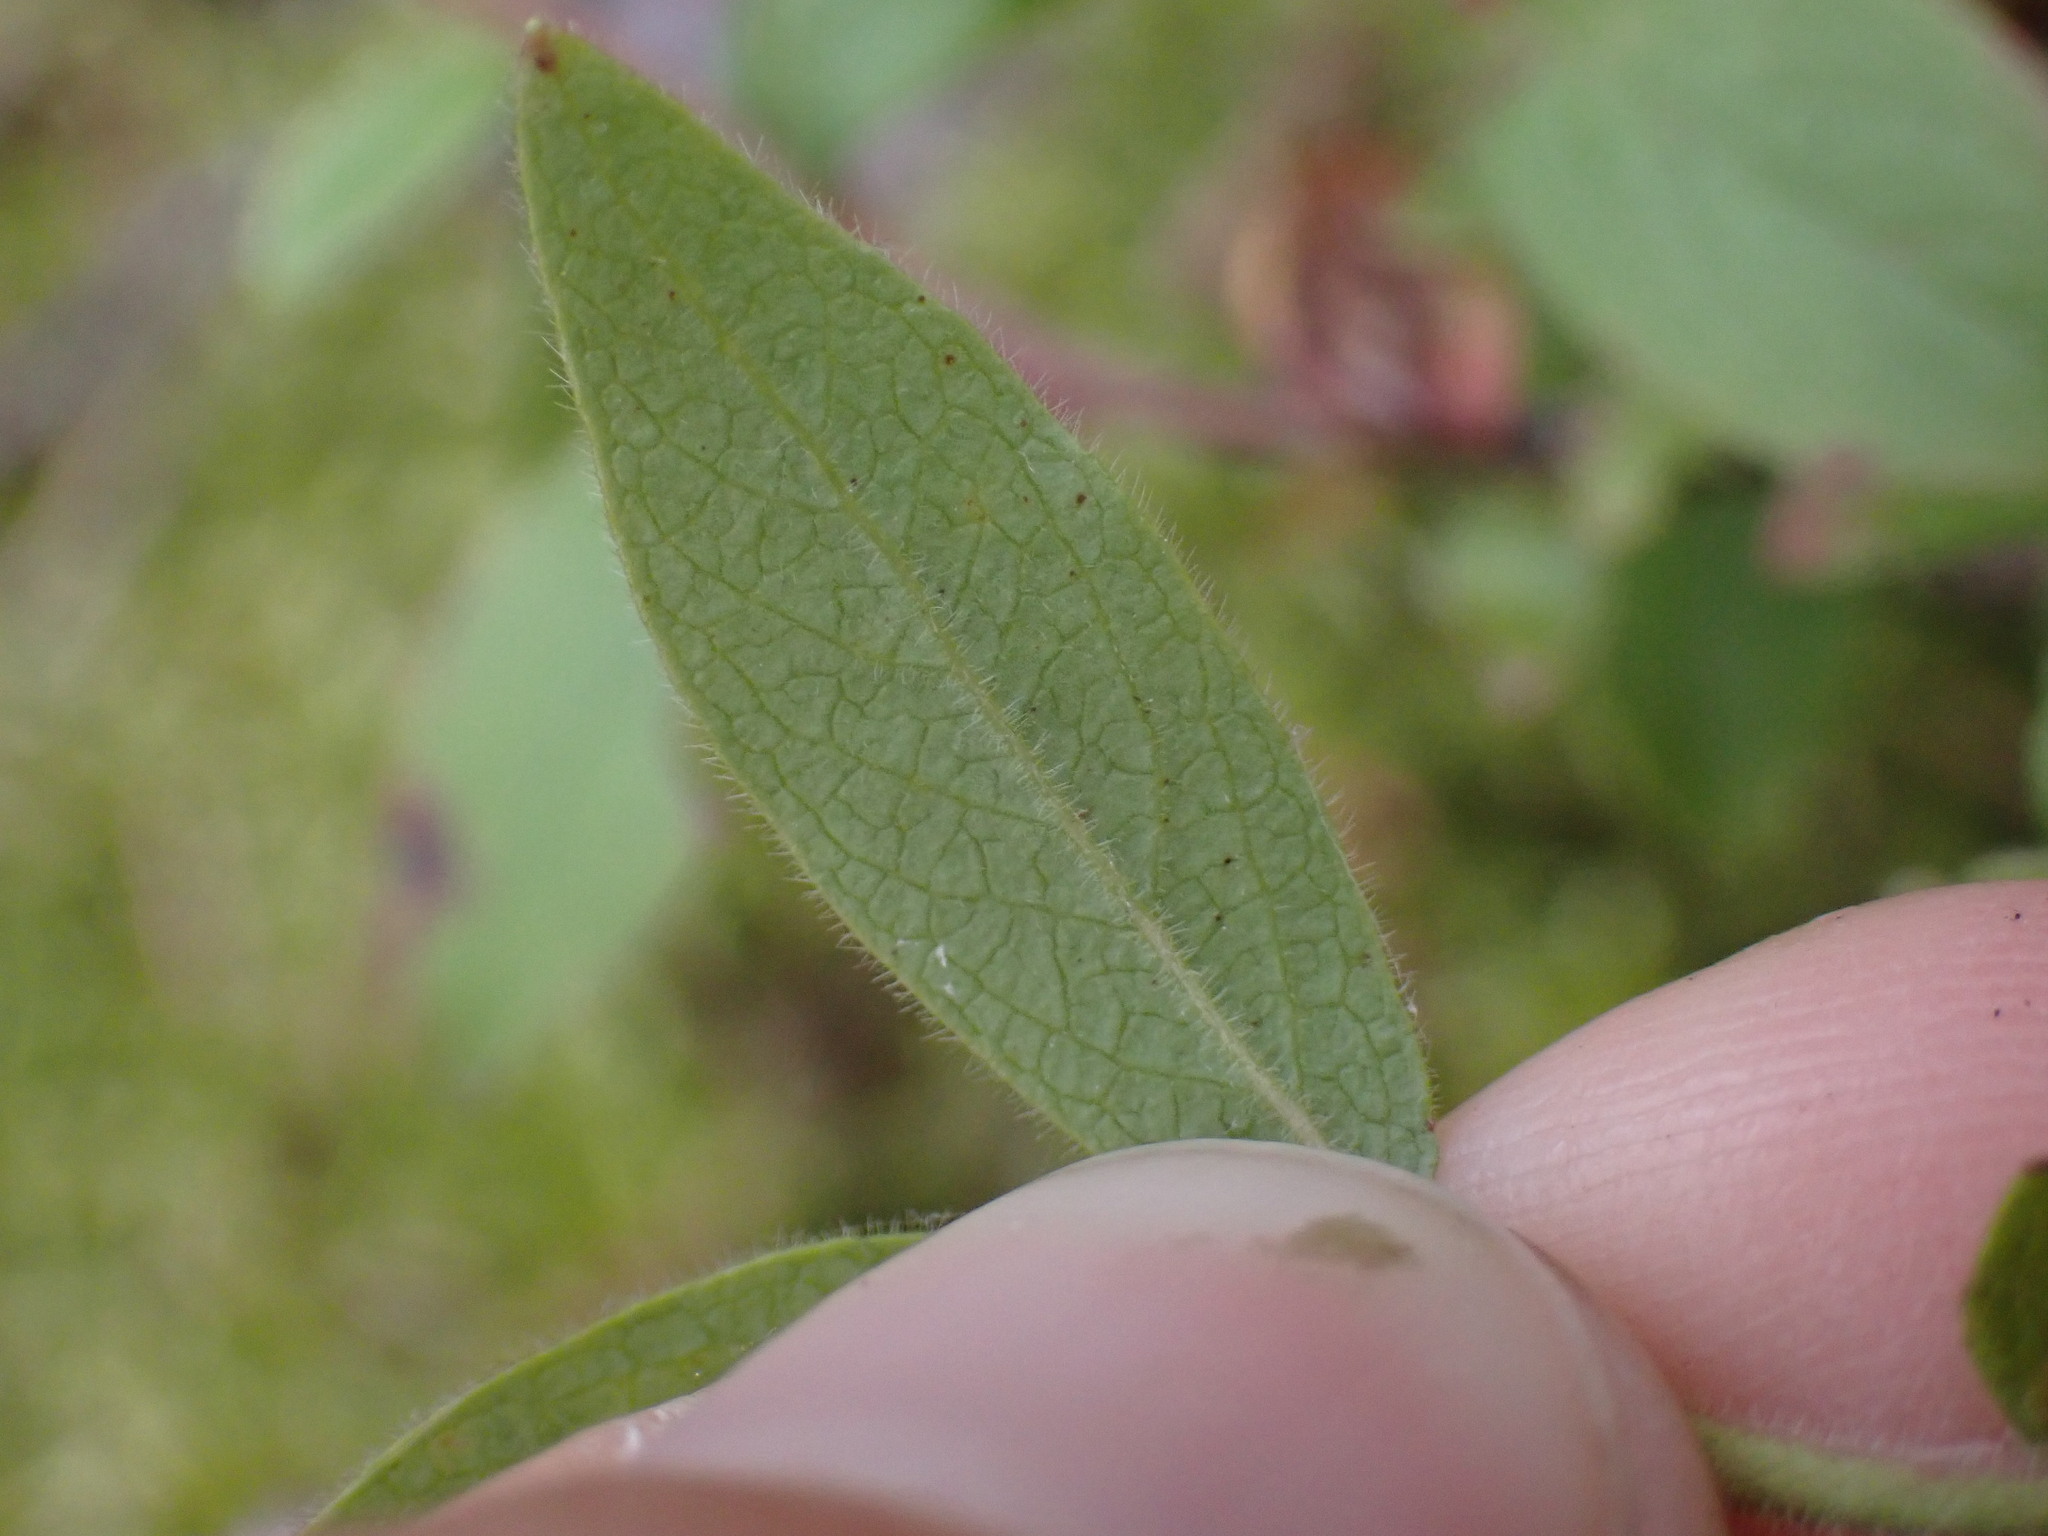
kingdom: Plantae
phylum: Tracheophyta
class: Magnoliopsida
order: Ericales
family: Ericaceae
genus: Vaccinium
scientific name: Vaccinium myrtilloides
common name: Canada blueberry
